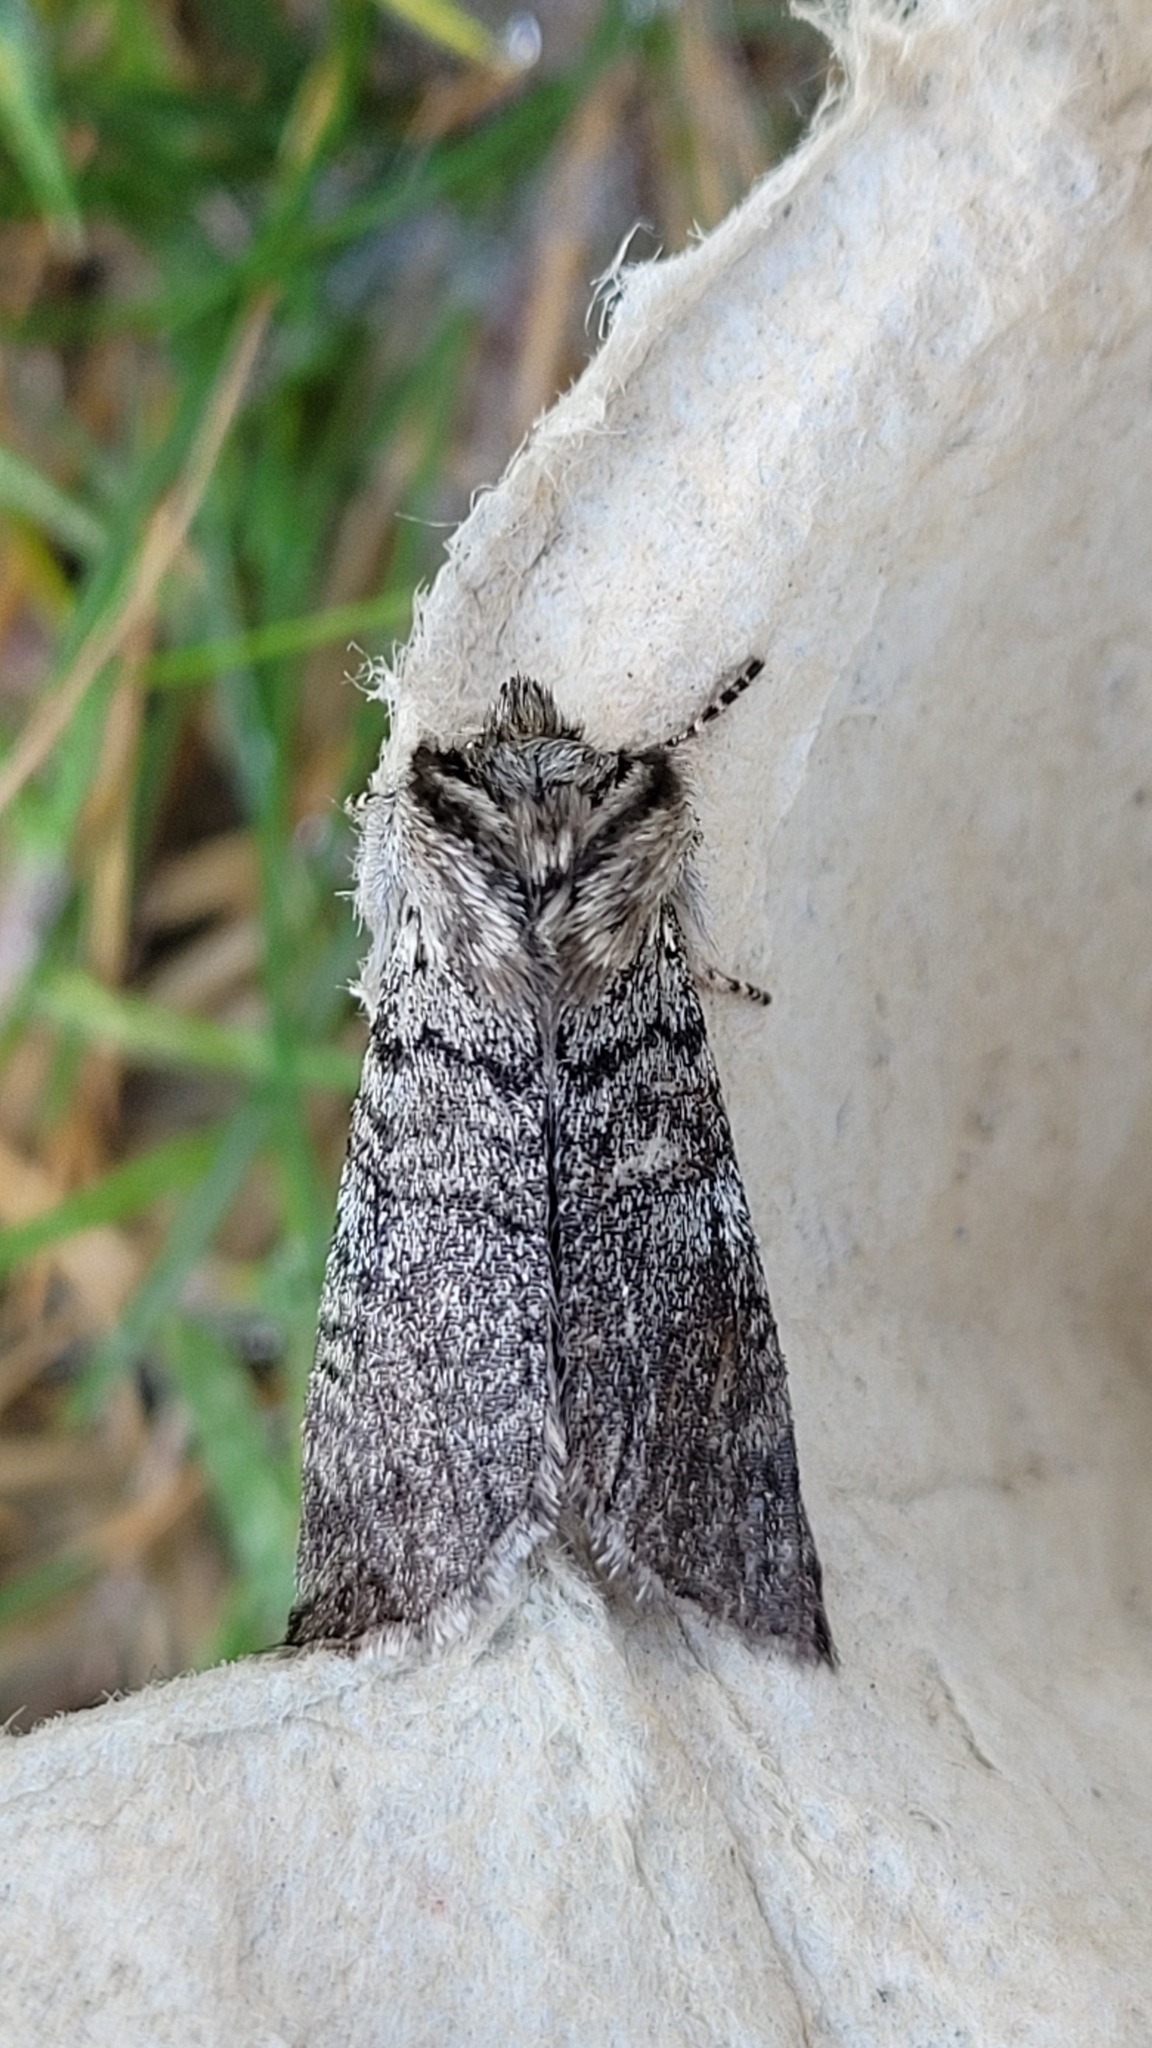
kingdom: Animalia
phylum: Arthropoda
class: Insecta
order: Lepidoptera
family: Drepanidae
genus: Achlya
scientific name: Achlya flavicornis
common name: Yellow horned
